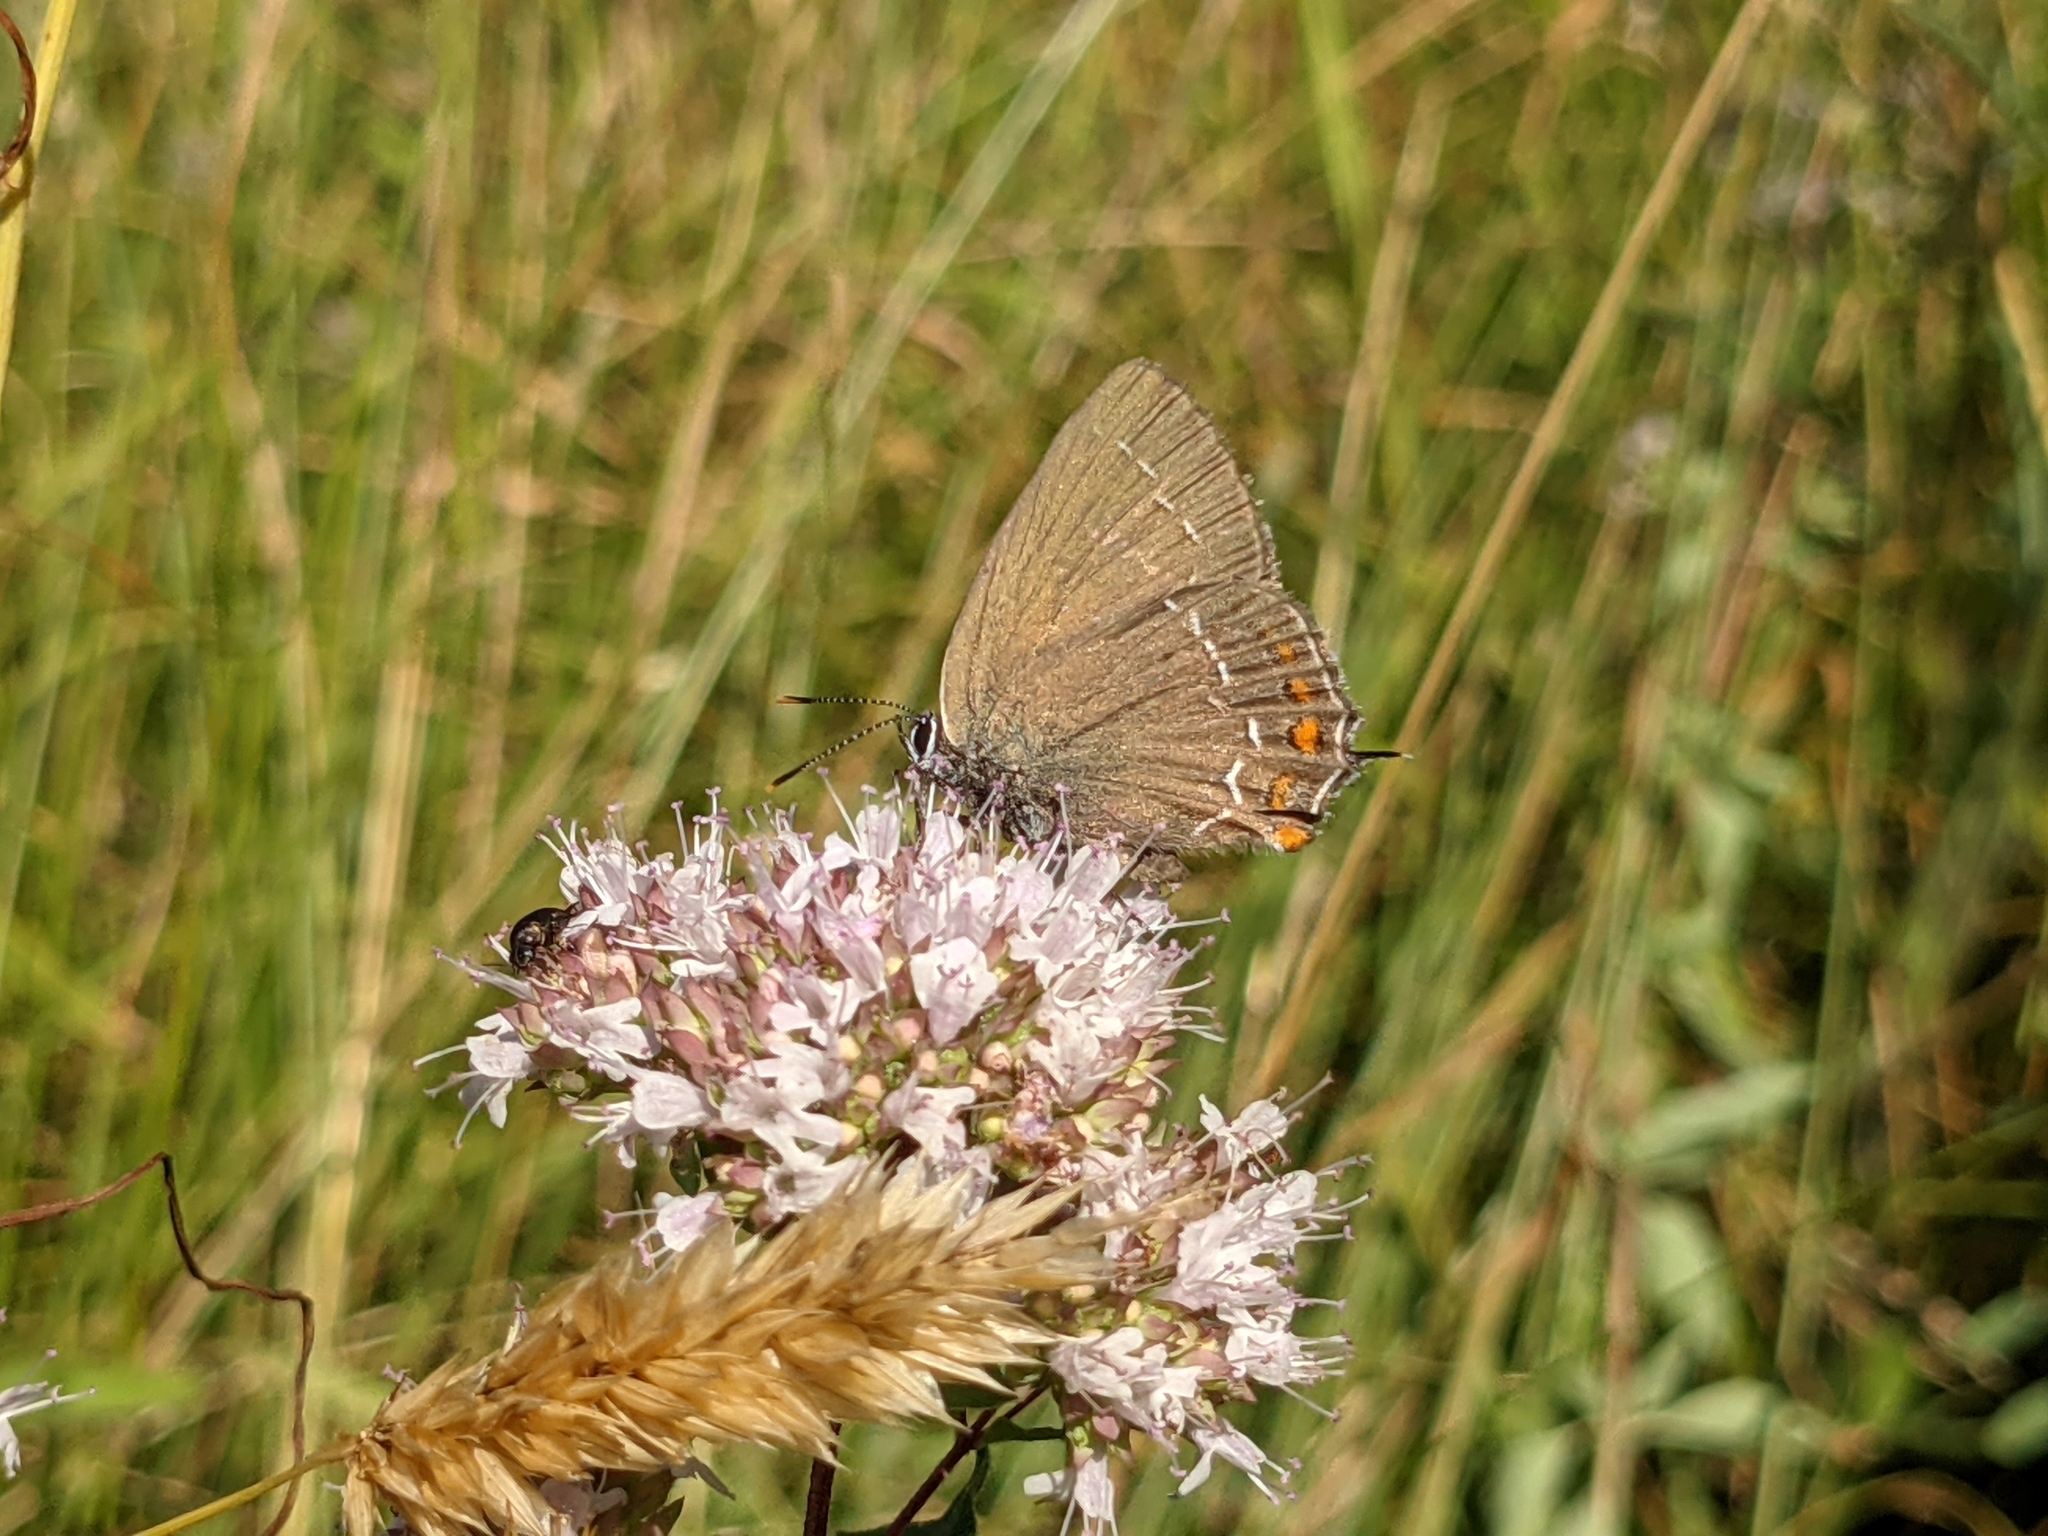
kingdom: Animalia
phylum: Arthropoda
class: Insecta
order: Lepidoptera
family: Lycaenidae
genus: Nordmannia
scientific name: Nordmannia ilicis
